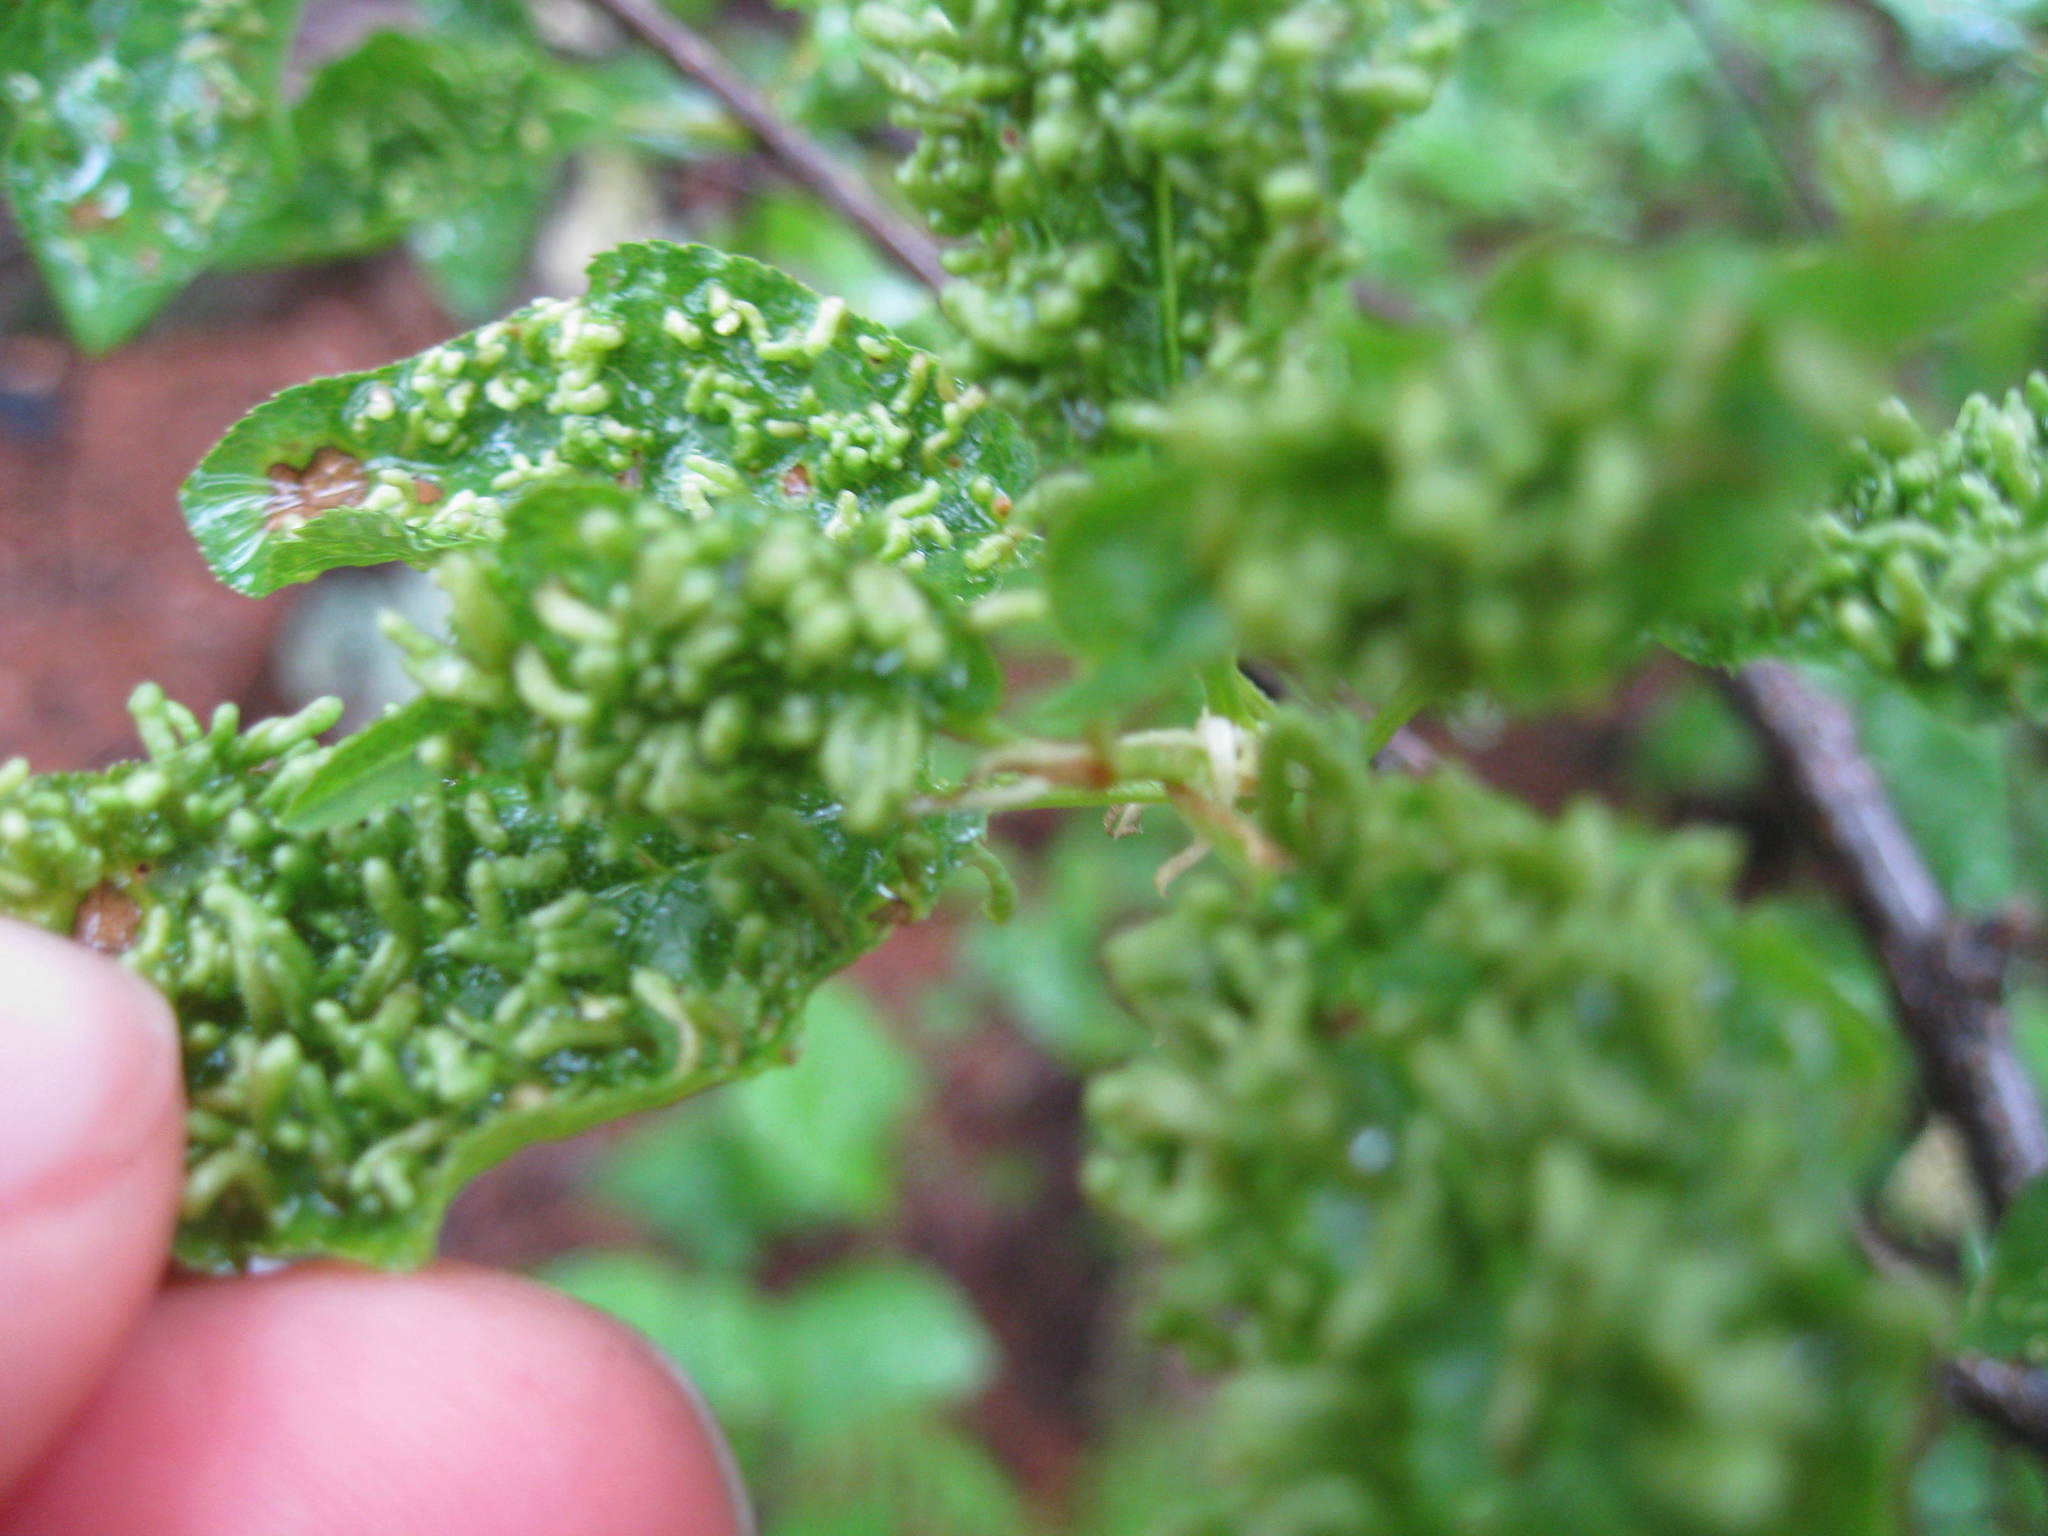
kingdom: Animalia
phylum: Arthropoda
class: Arachnida
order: Trombidiformes
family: Eriophyidae
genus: Eriophyes
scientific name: Eriophyes emarginatae
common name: Plum leaf gall mite
